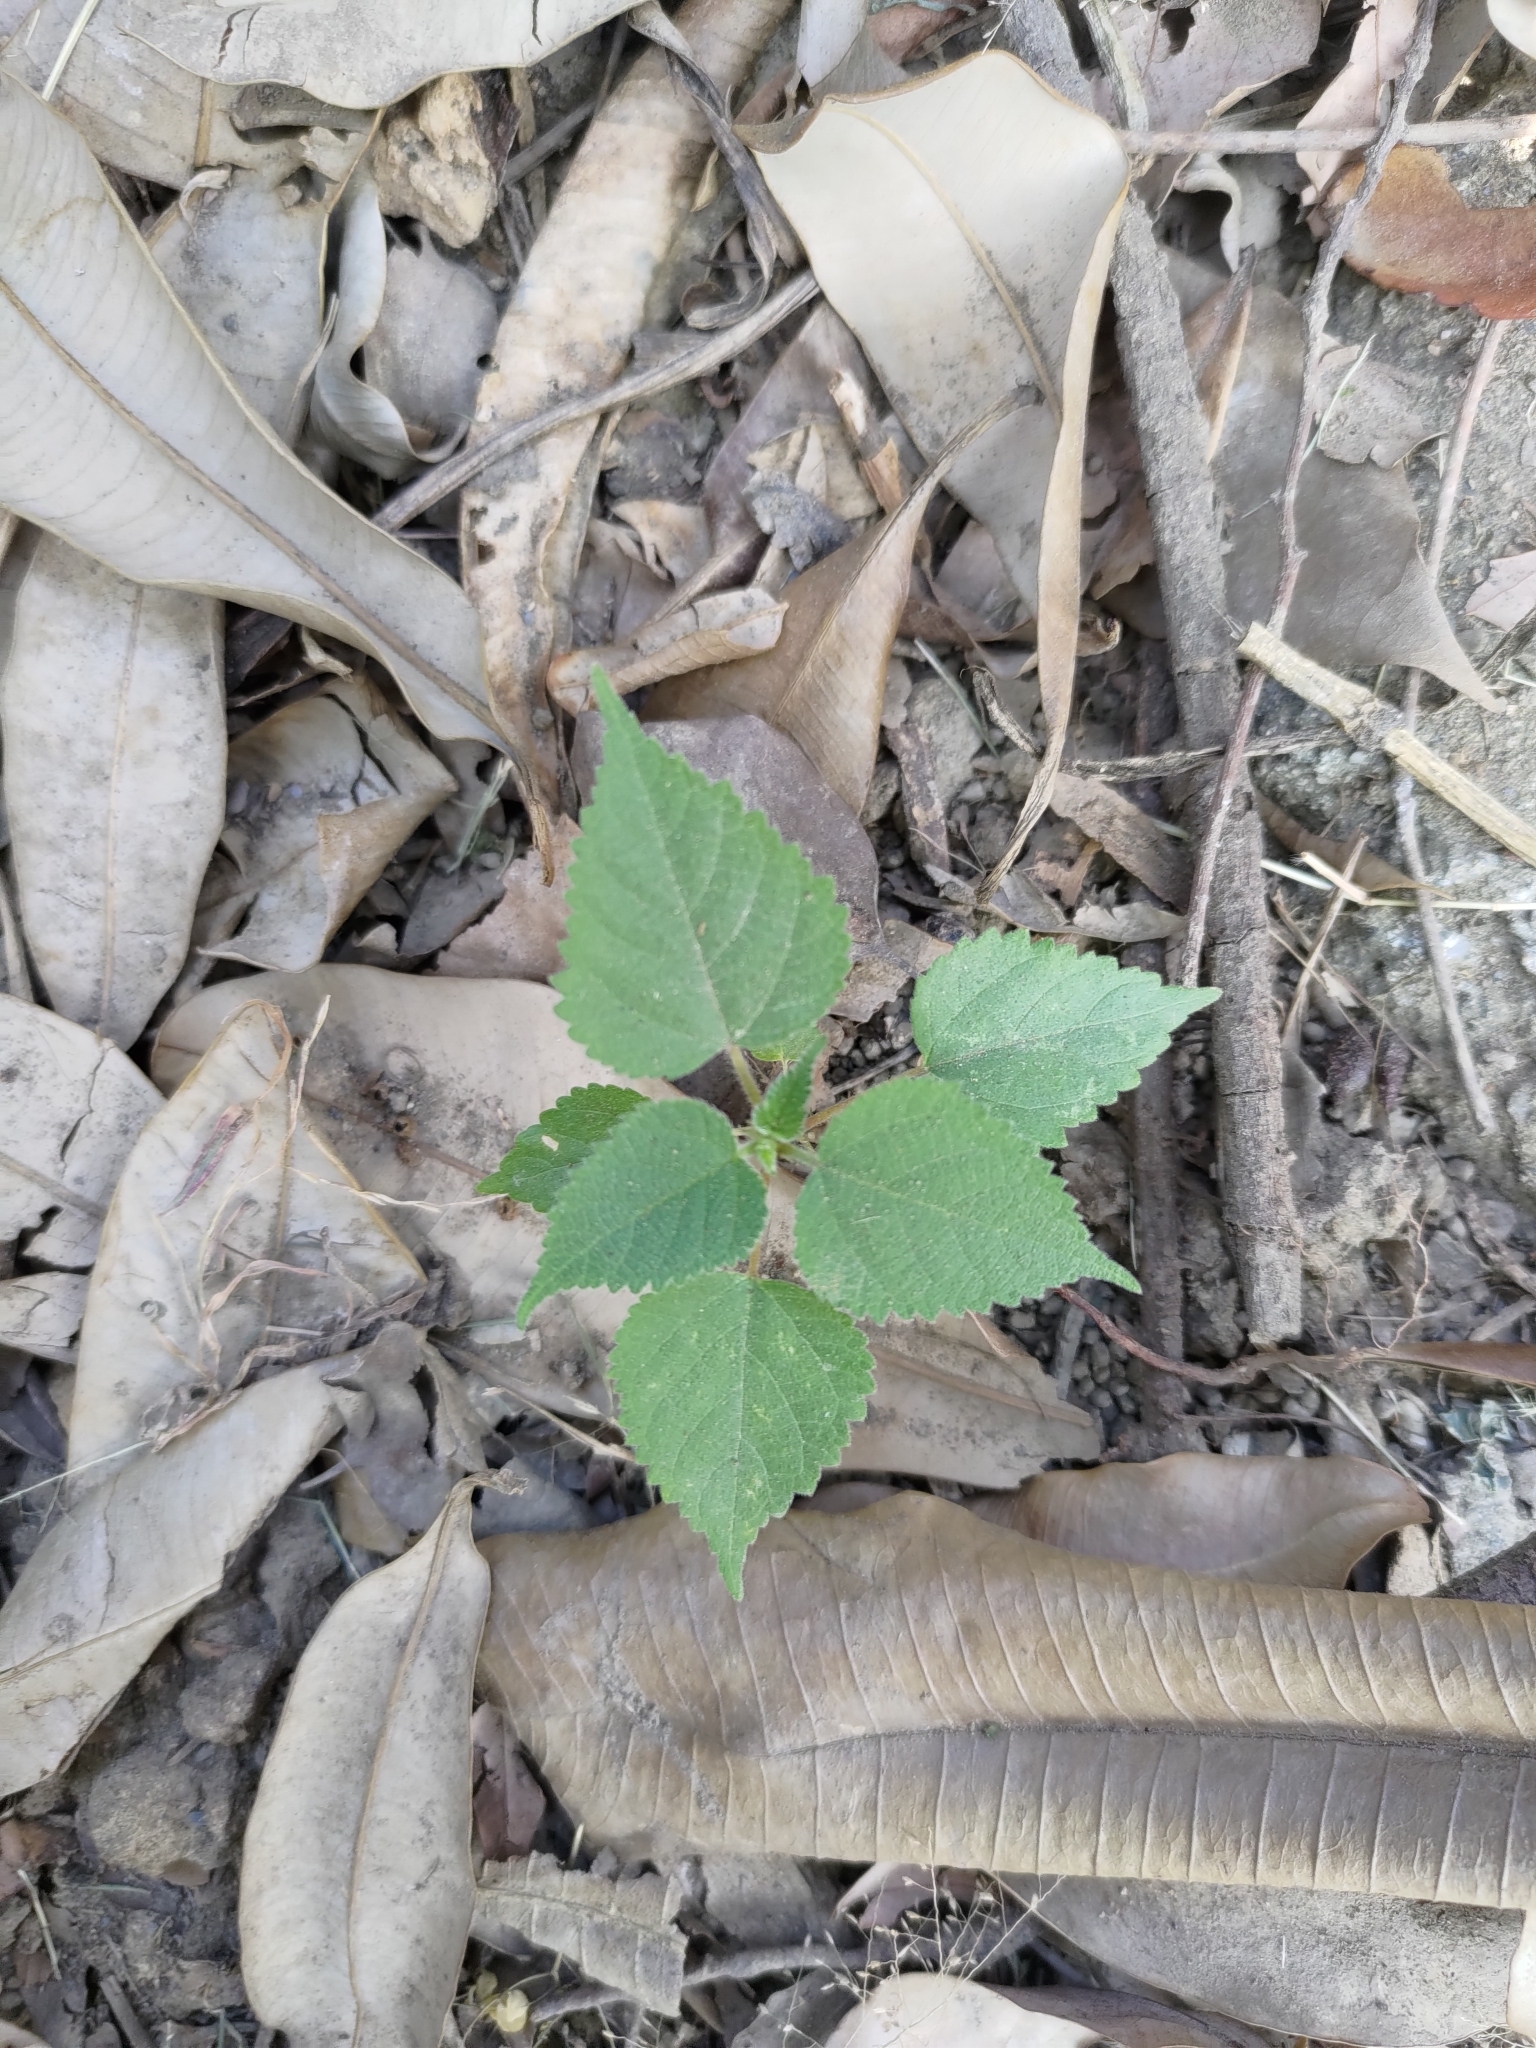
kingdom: Plantae
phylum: Tracheophyta
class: Magnoliopsida
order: Rosales
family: Moraceae
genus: Broussonetia
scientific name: Broussonetia papyrifera
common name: Paper mulberry
